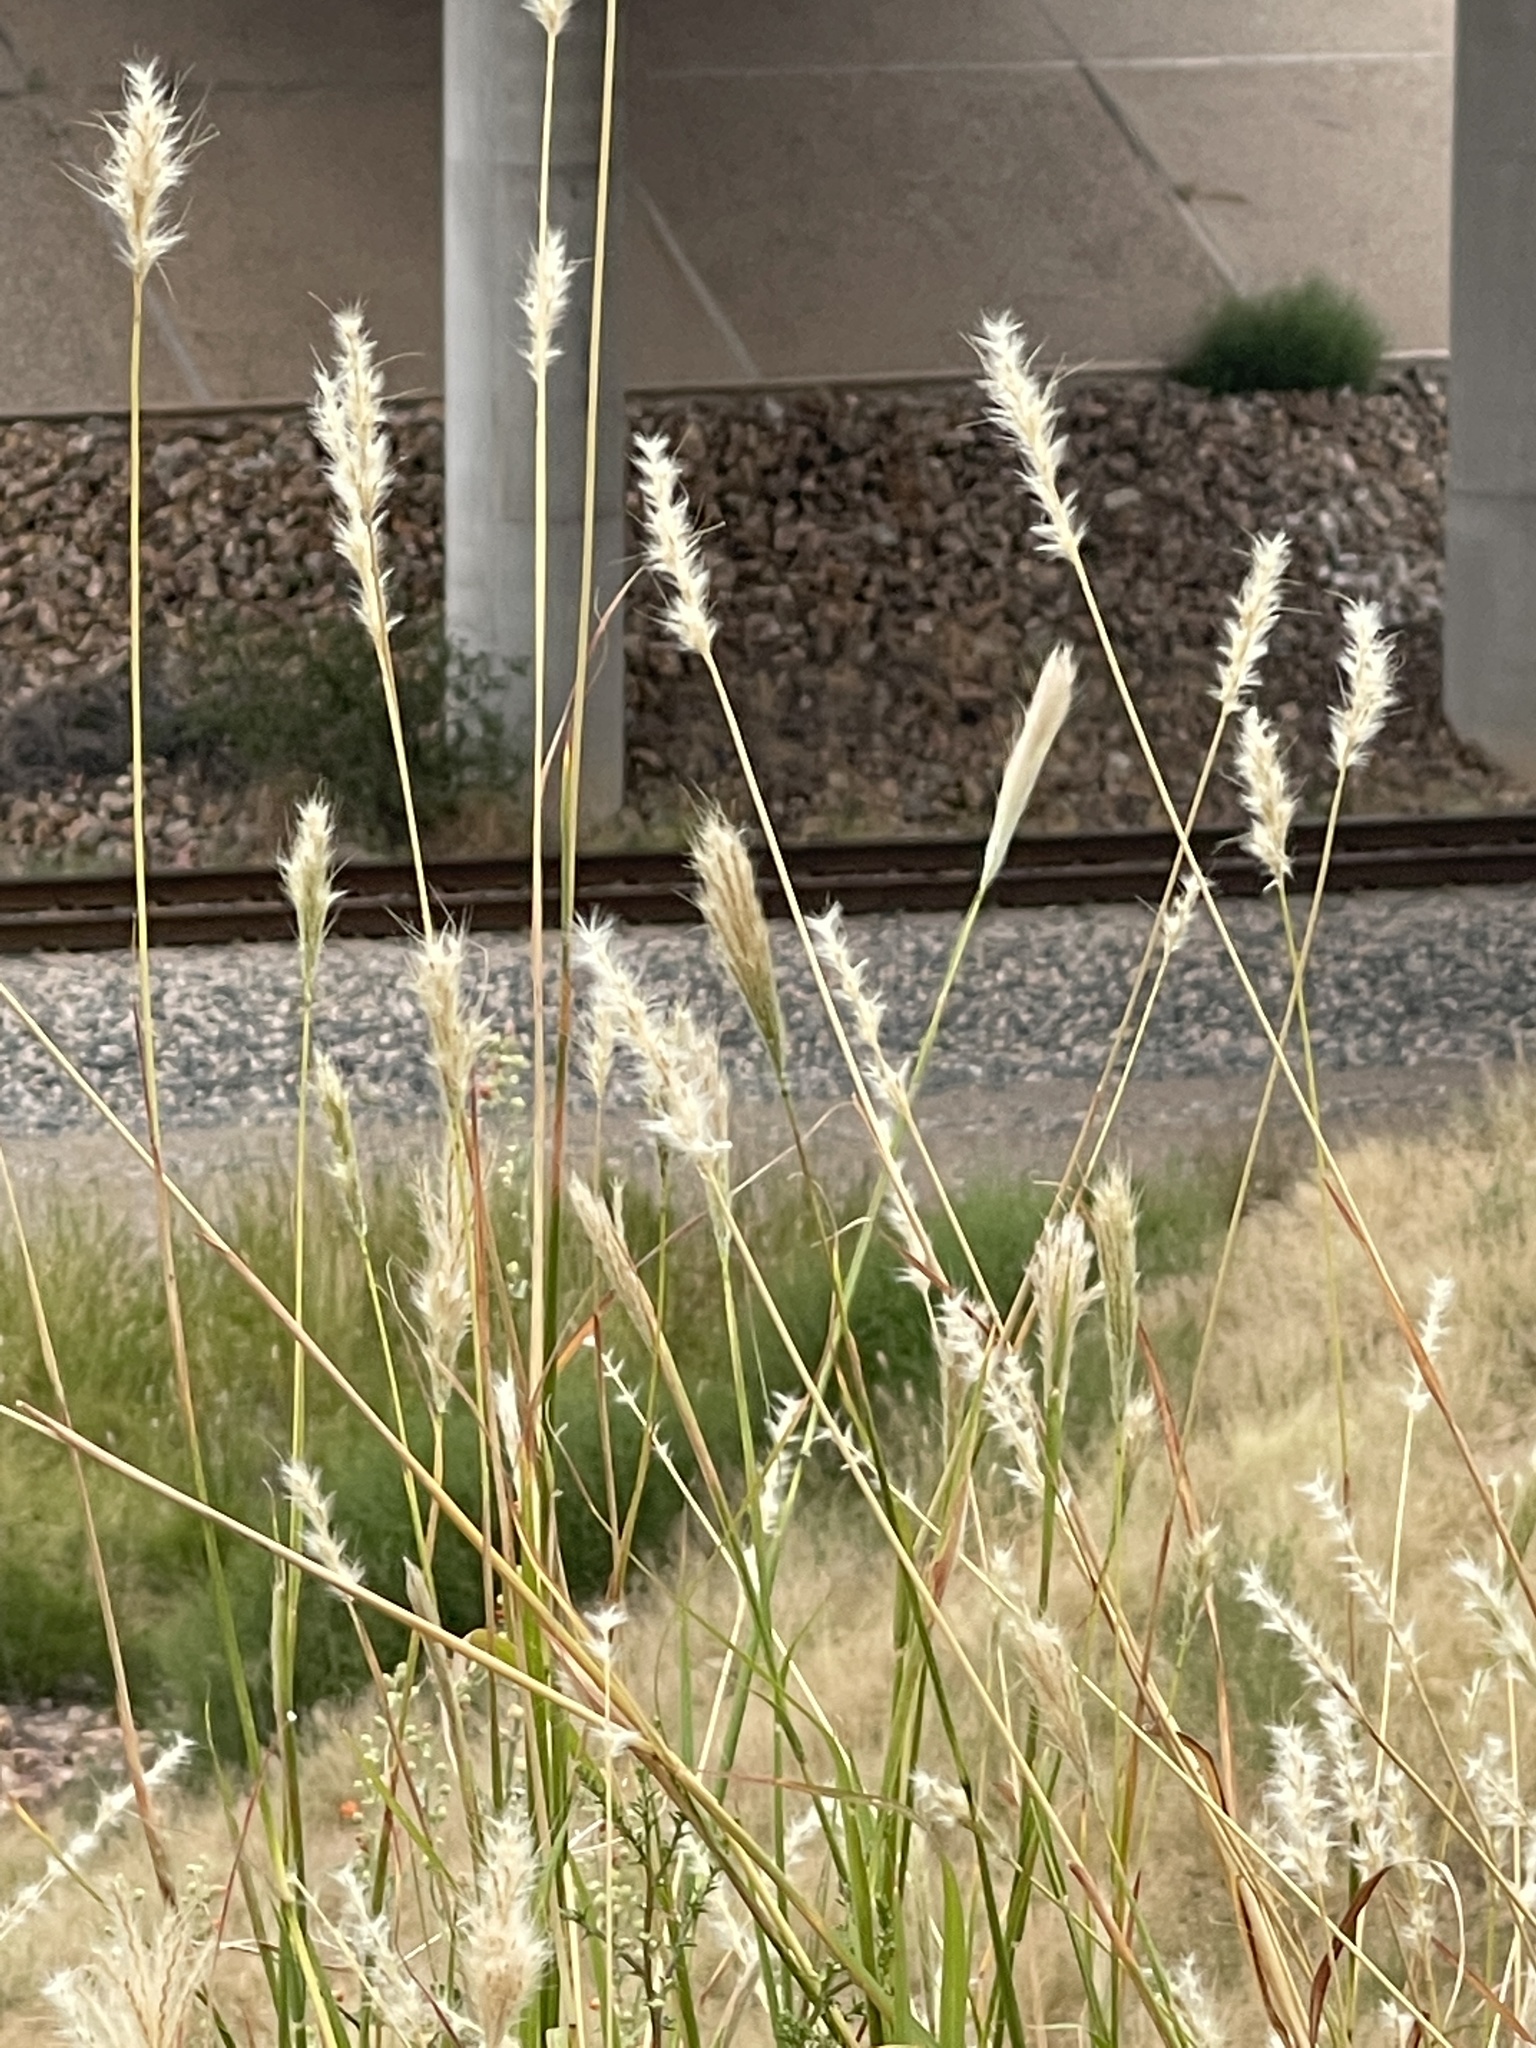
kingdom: Plantae
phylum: Tracheophyta
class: Liliopsida
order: Poales
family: Poaceae
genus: Bothriochloa
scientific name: Bothriochloa barbinodis
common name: Cane bluestem
